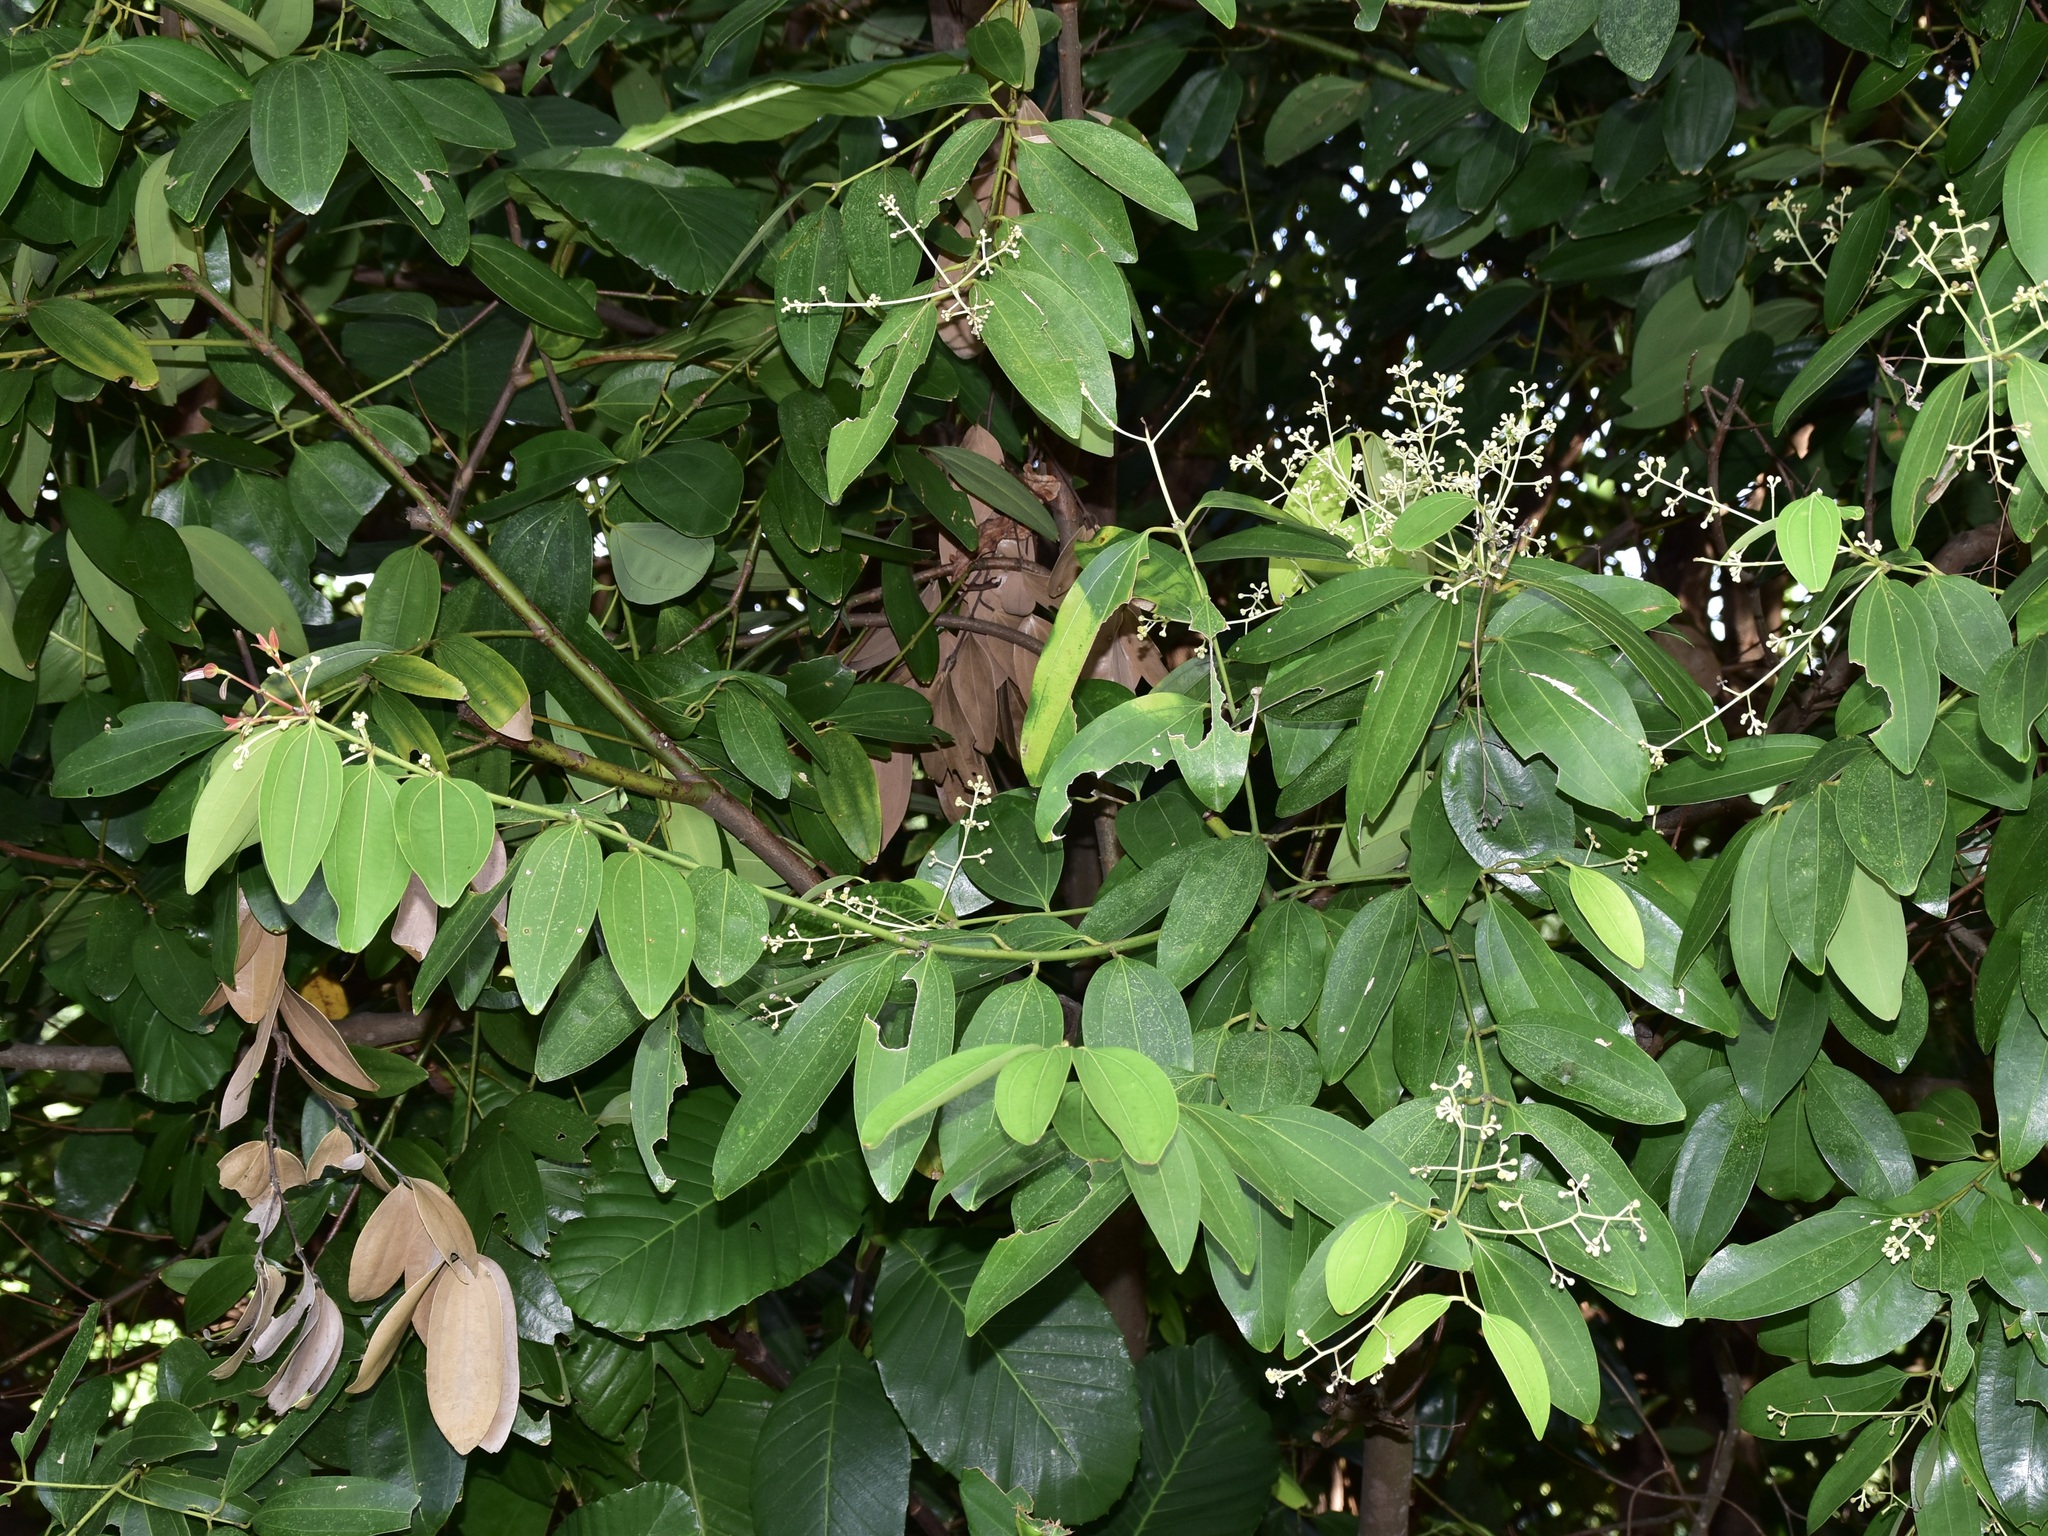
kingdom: Plantae
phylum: Tracheophyta
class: Magnoliopsida
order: Laurales
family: Lauraceae
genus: Cinnamomum
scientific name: Cinnamomum iners
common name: Wild cinnamon
